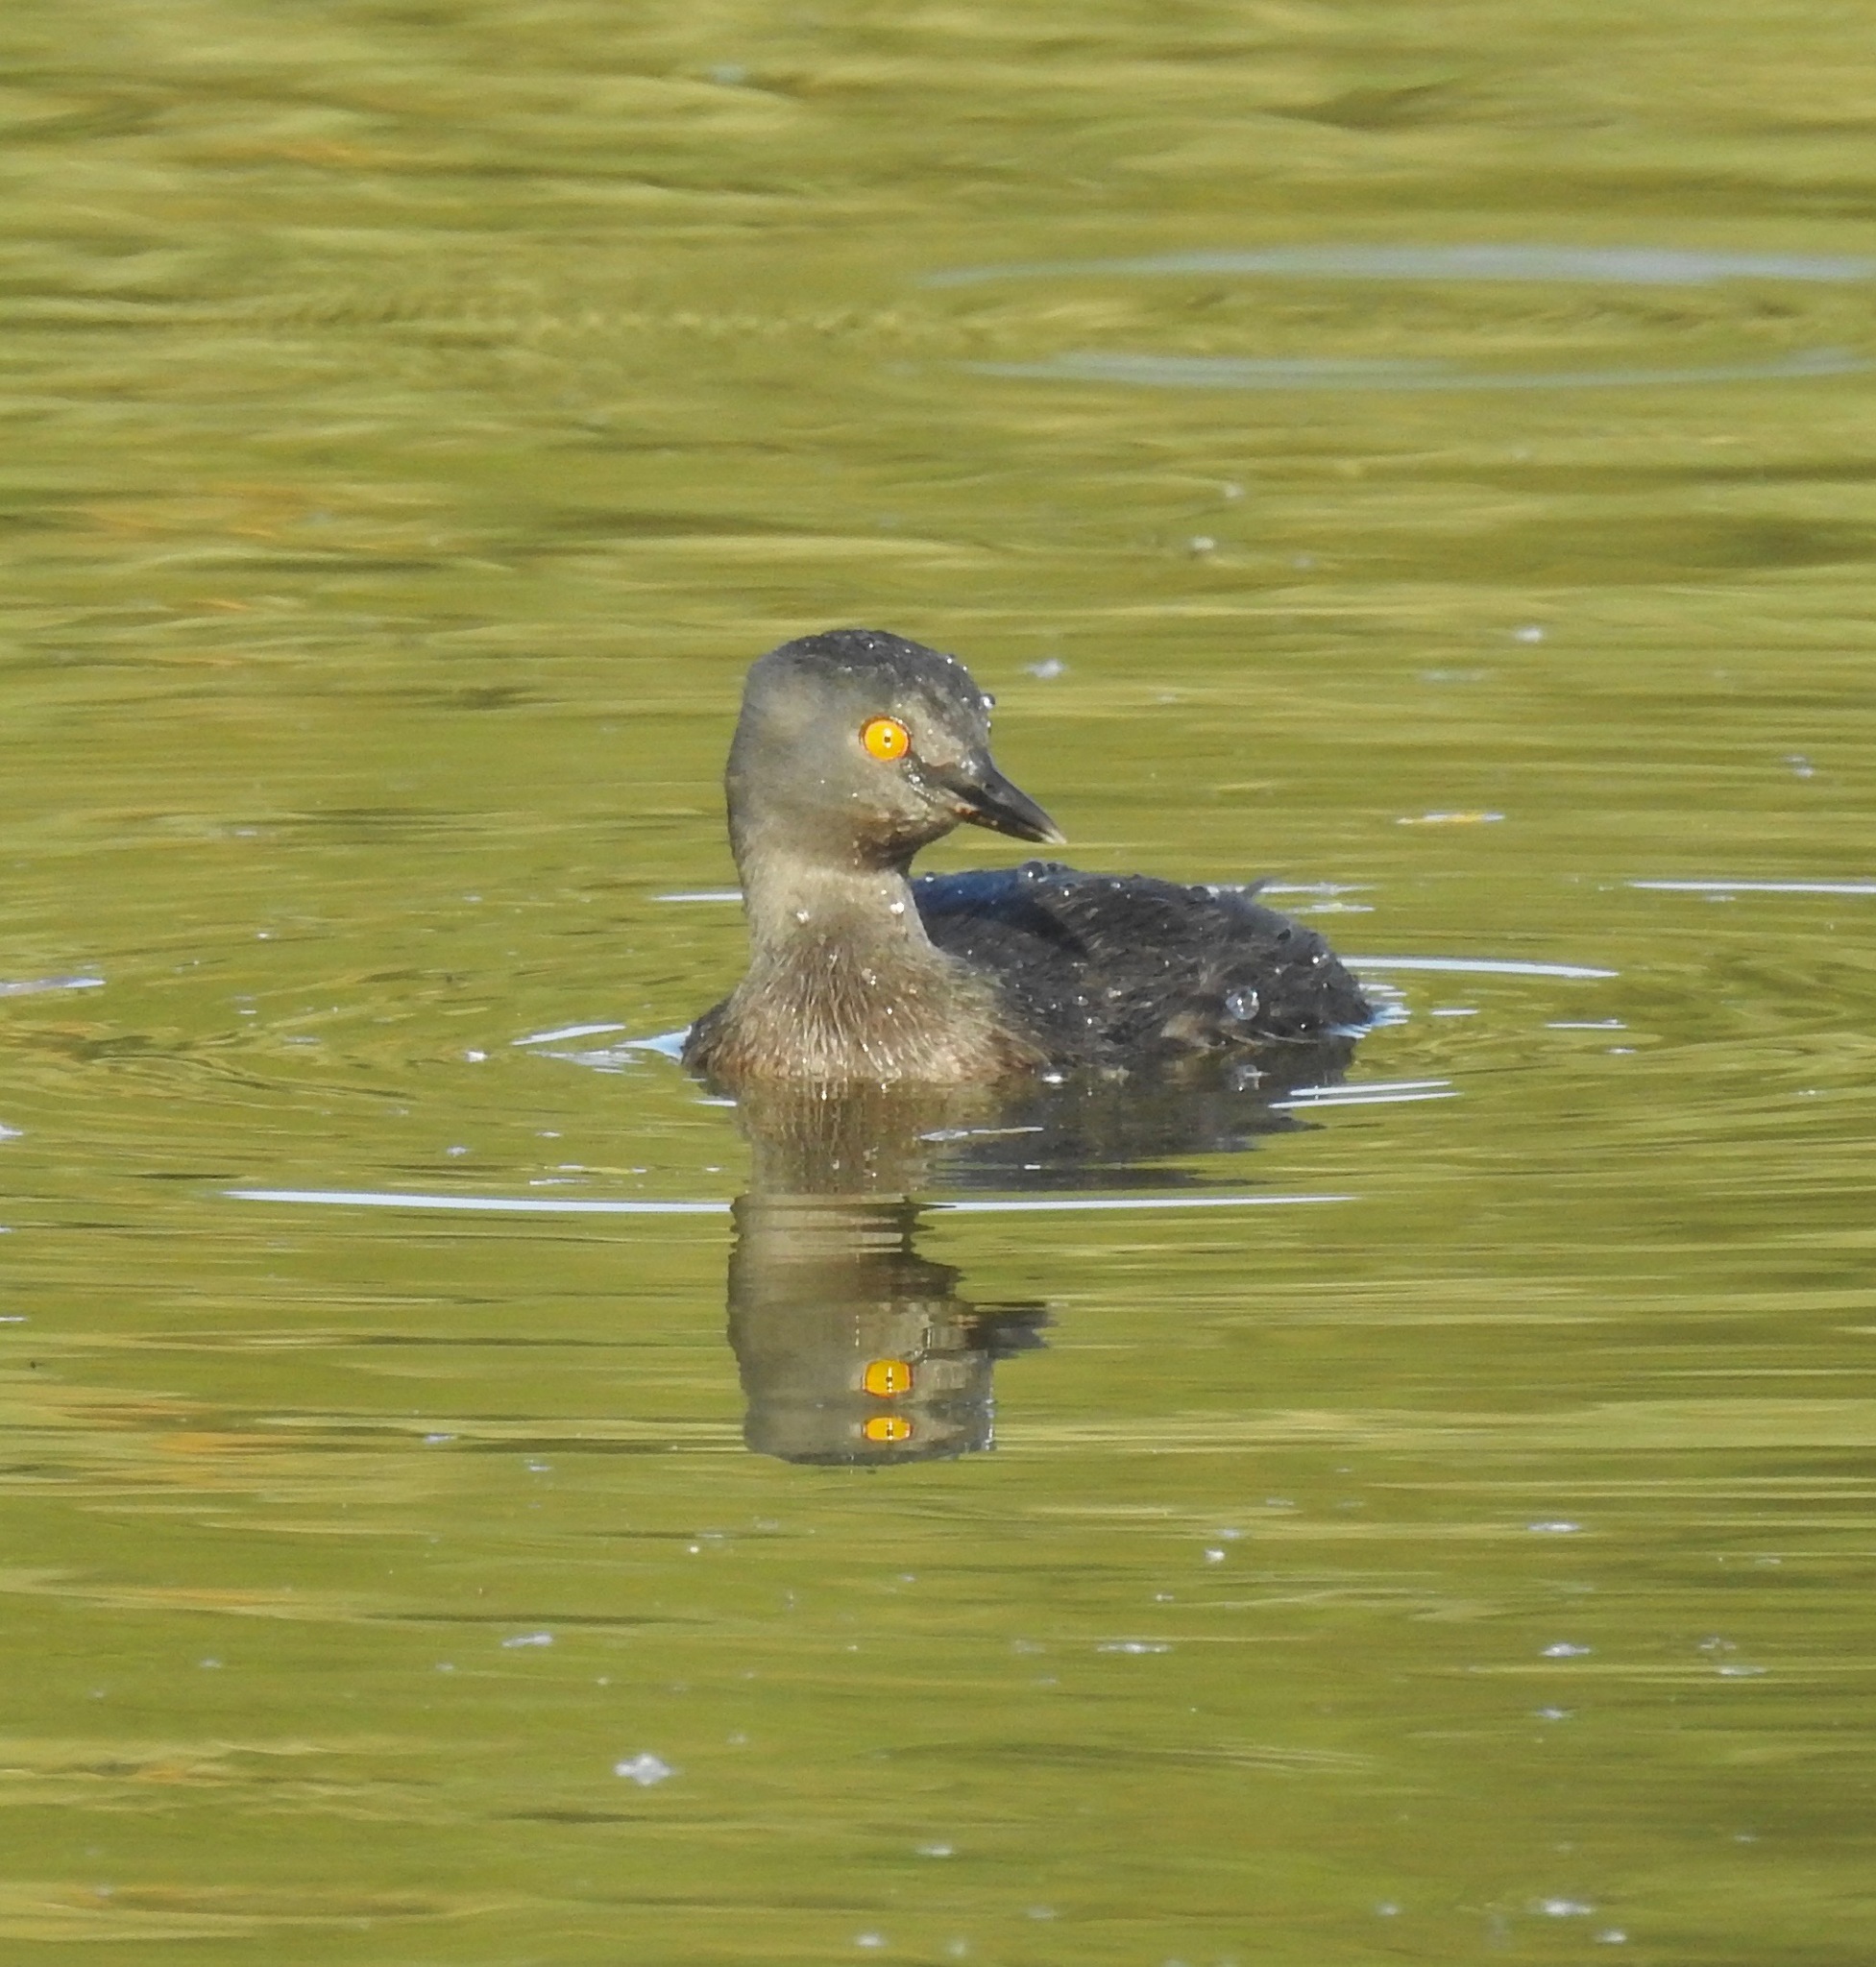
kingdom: Animalia
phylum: Chordata
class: Aves
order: Podicipediformes
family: Podicipedidae
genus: Tachybaptus
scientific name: Tachybaptus dominicus
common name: Least grebe
